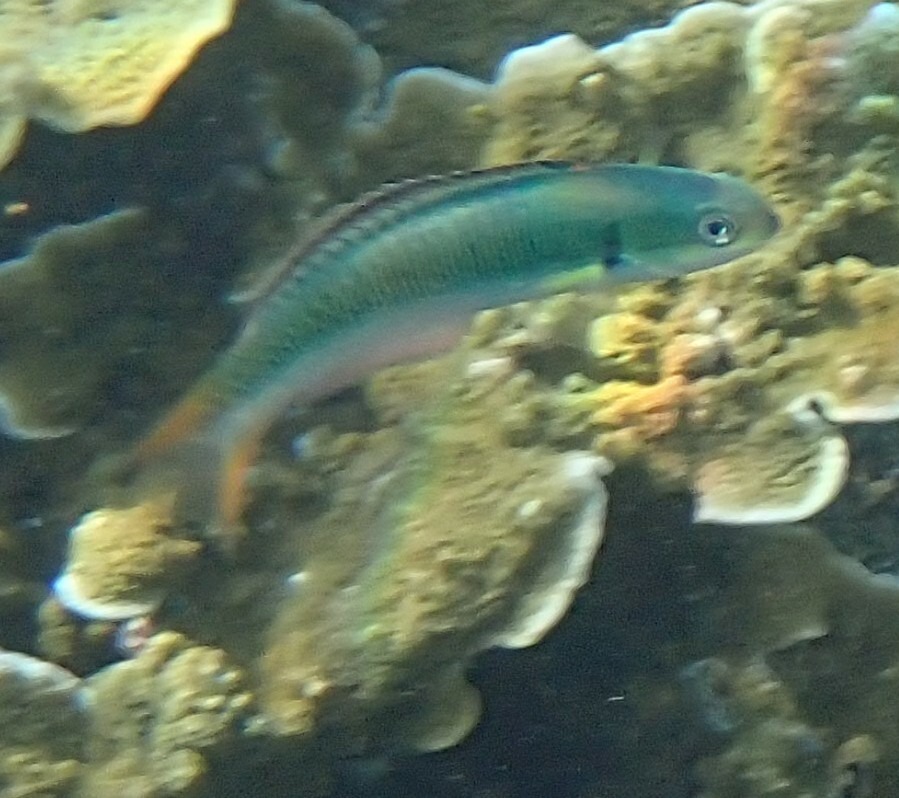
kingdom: Animalia
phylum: Chordata
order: Perciformes
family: Labridae
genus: Thalassoma
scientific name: Thalassoma amblycephalum
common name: Bluehead wrasse
